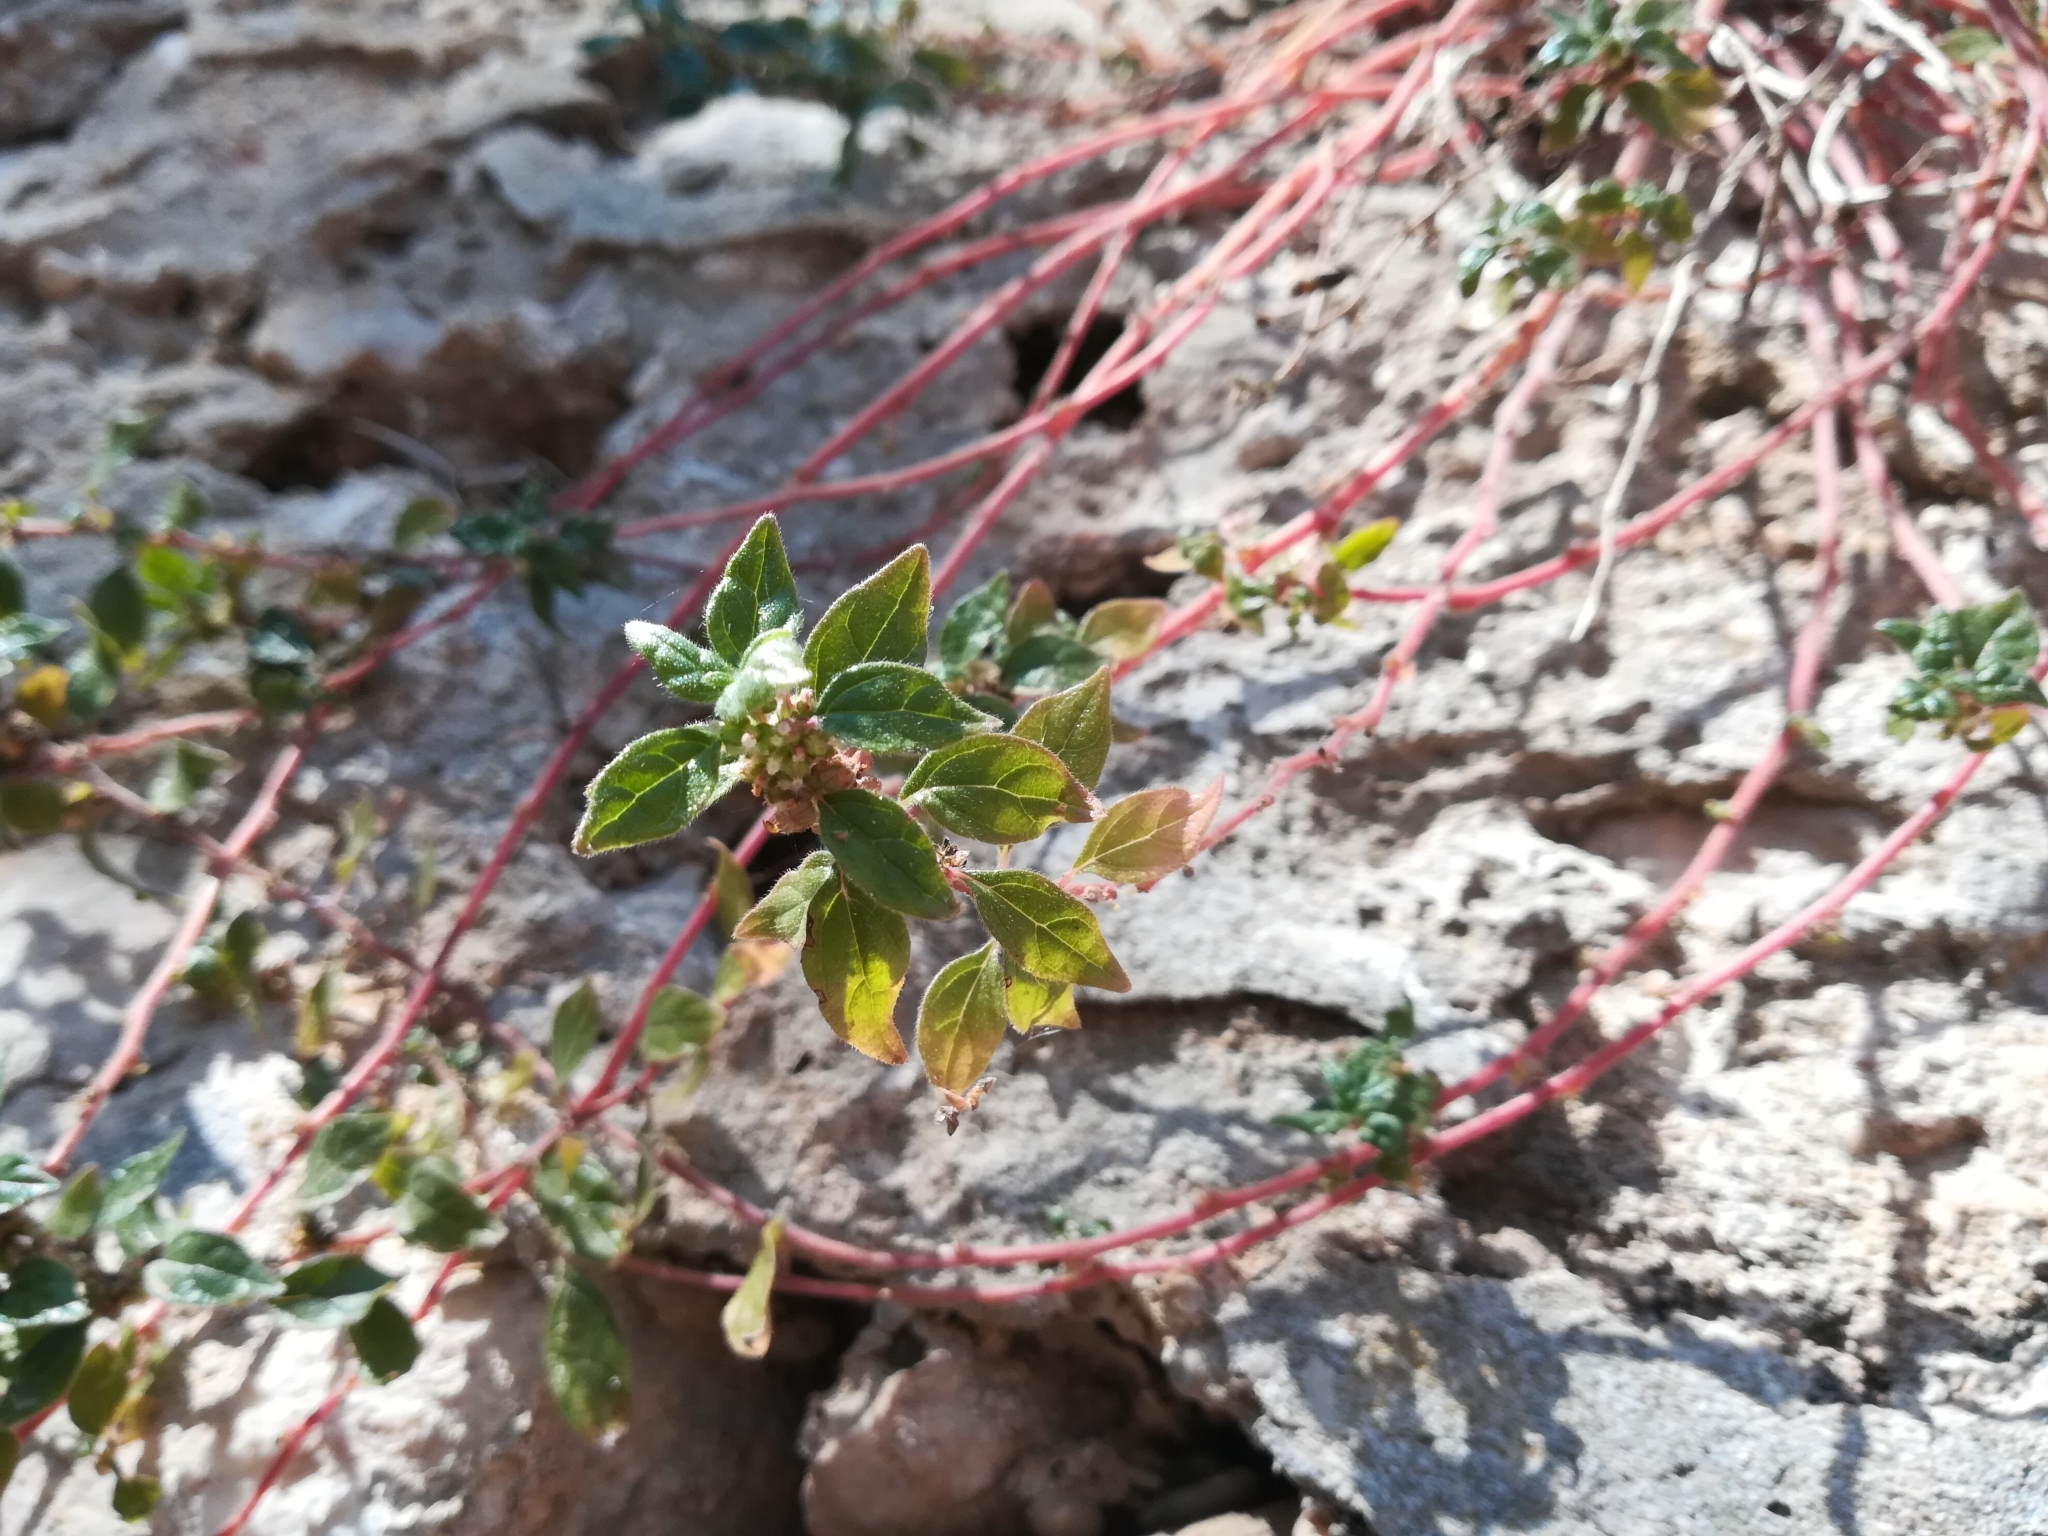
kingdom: Plantae
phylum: Tracheophyta
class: Magnoliopsida
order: Rosales
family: Urticaceae
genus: Parietaria
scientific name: Parietaria judaica
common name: Pellitory-of-the-wall
